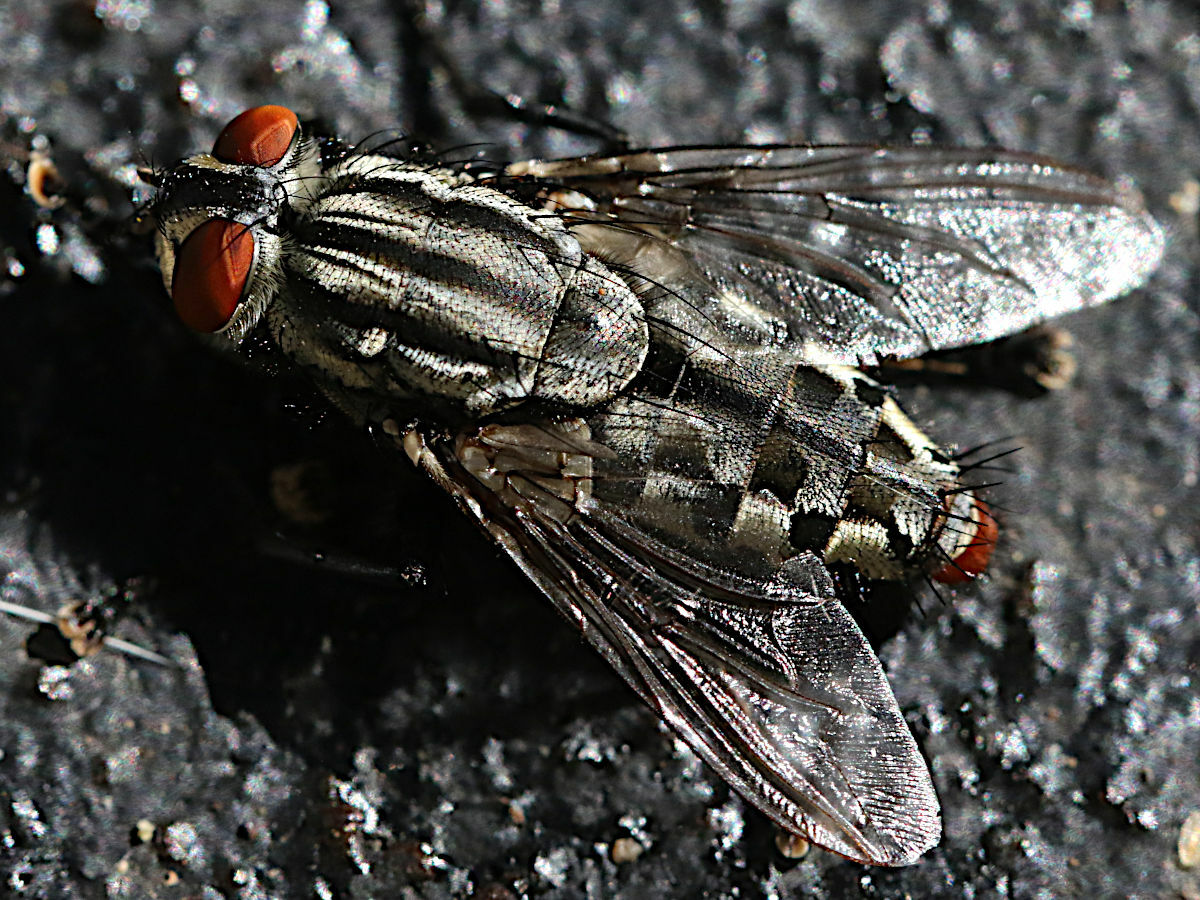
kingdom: Animalia
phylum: Arthropoda
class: Insecta
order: Diptera
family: Sarcophagidae
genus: Sarcophaga
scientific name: Sarcophaga
